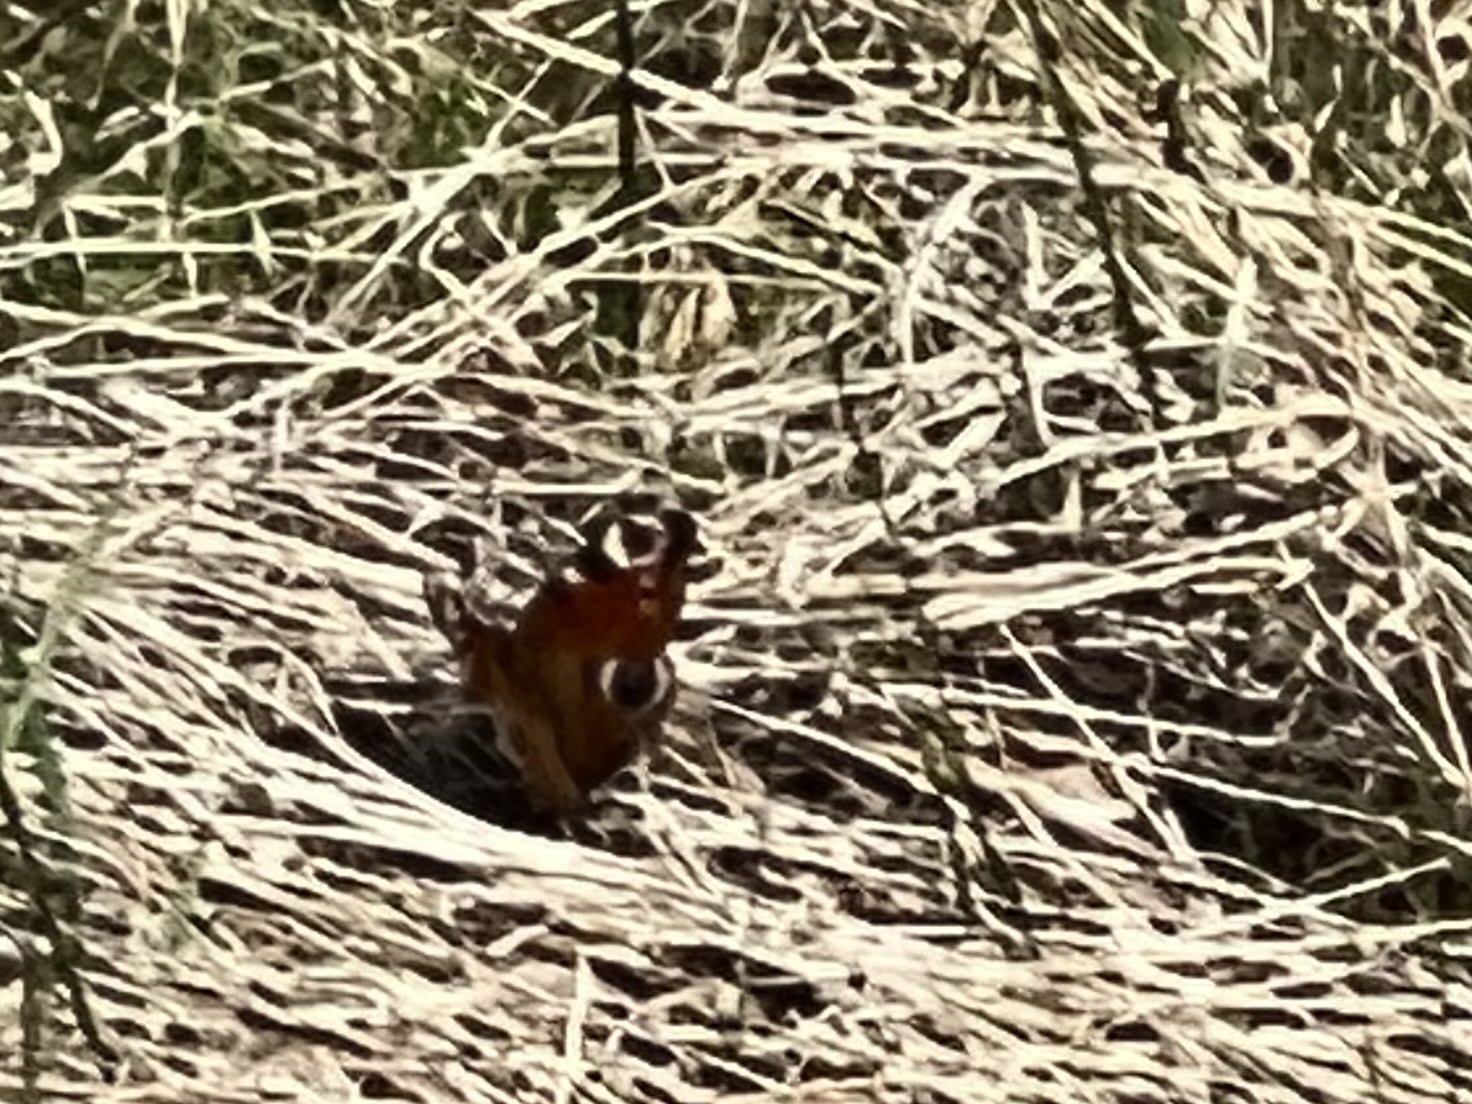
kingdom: Animalia
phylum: Arthropoda
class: Insecta
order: Lepidoptera
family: Nymphalidae
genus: Aglais
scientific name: Aglais io
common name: Peacock
